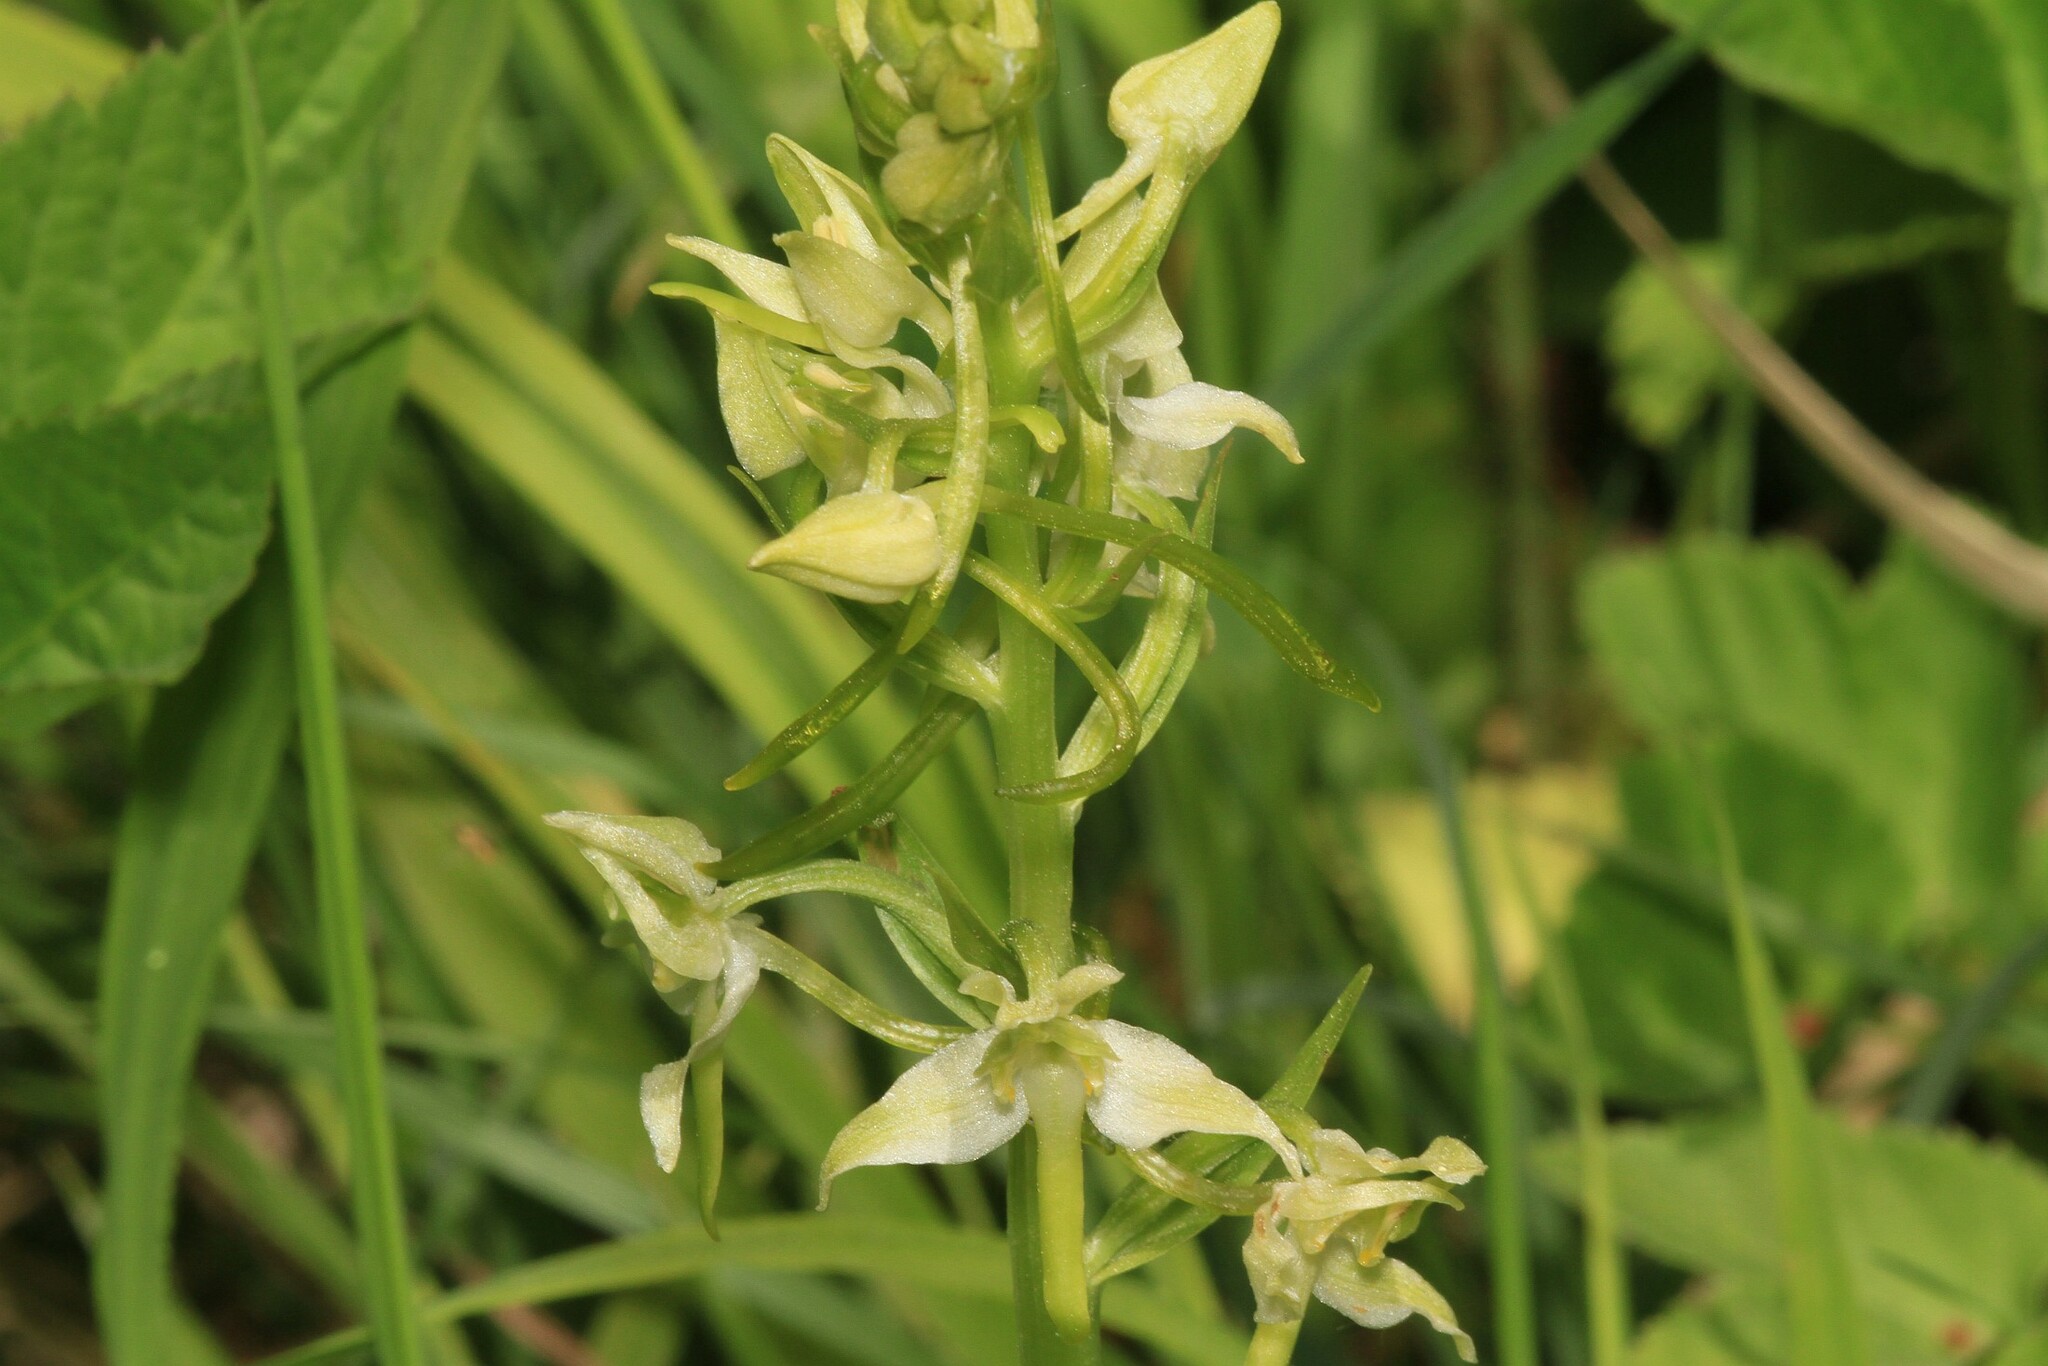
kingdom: Plantae
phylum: Tracheophyta
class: Liliopsida
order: Asparagales
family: Orchidaceae
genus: Platanthera
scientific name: Platanthera chlorantha
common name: Greater butterfly-orchid
